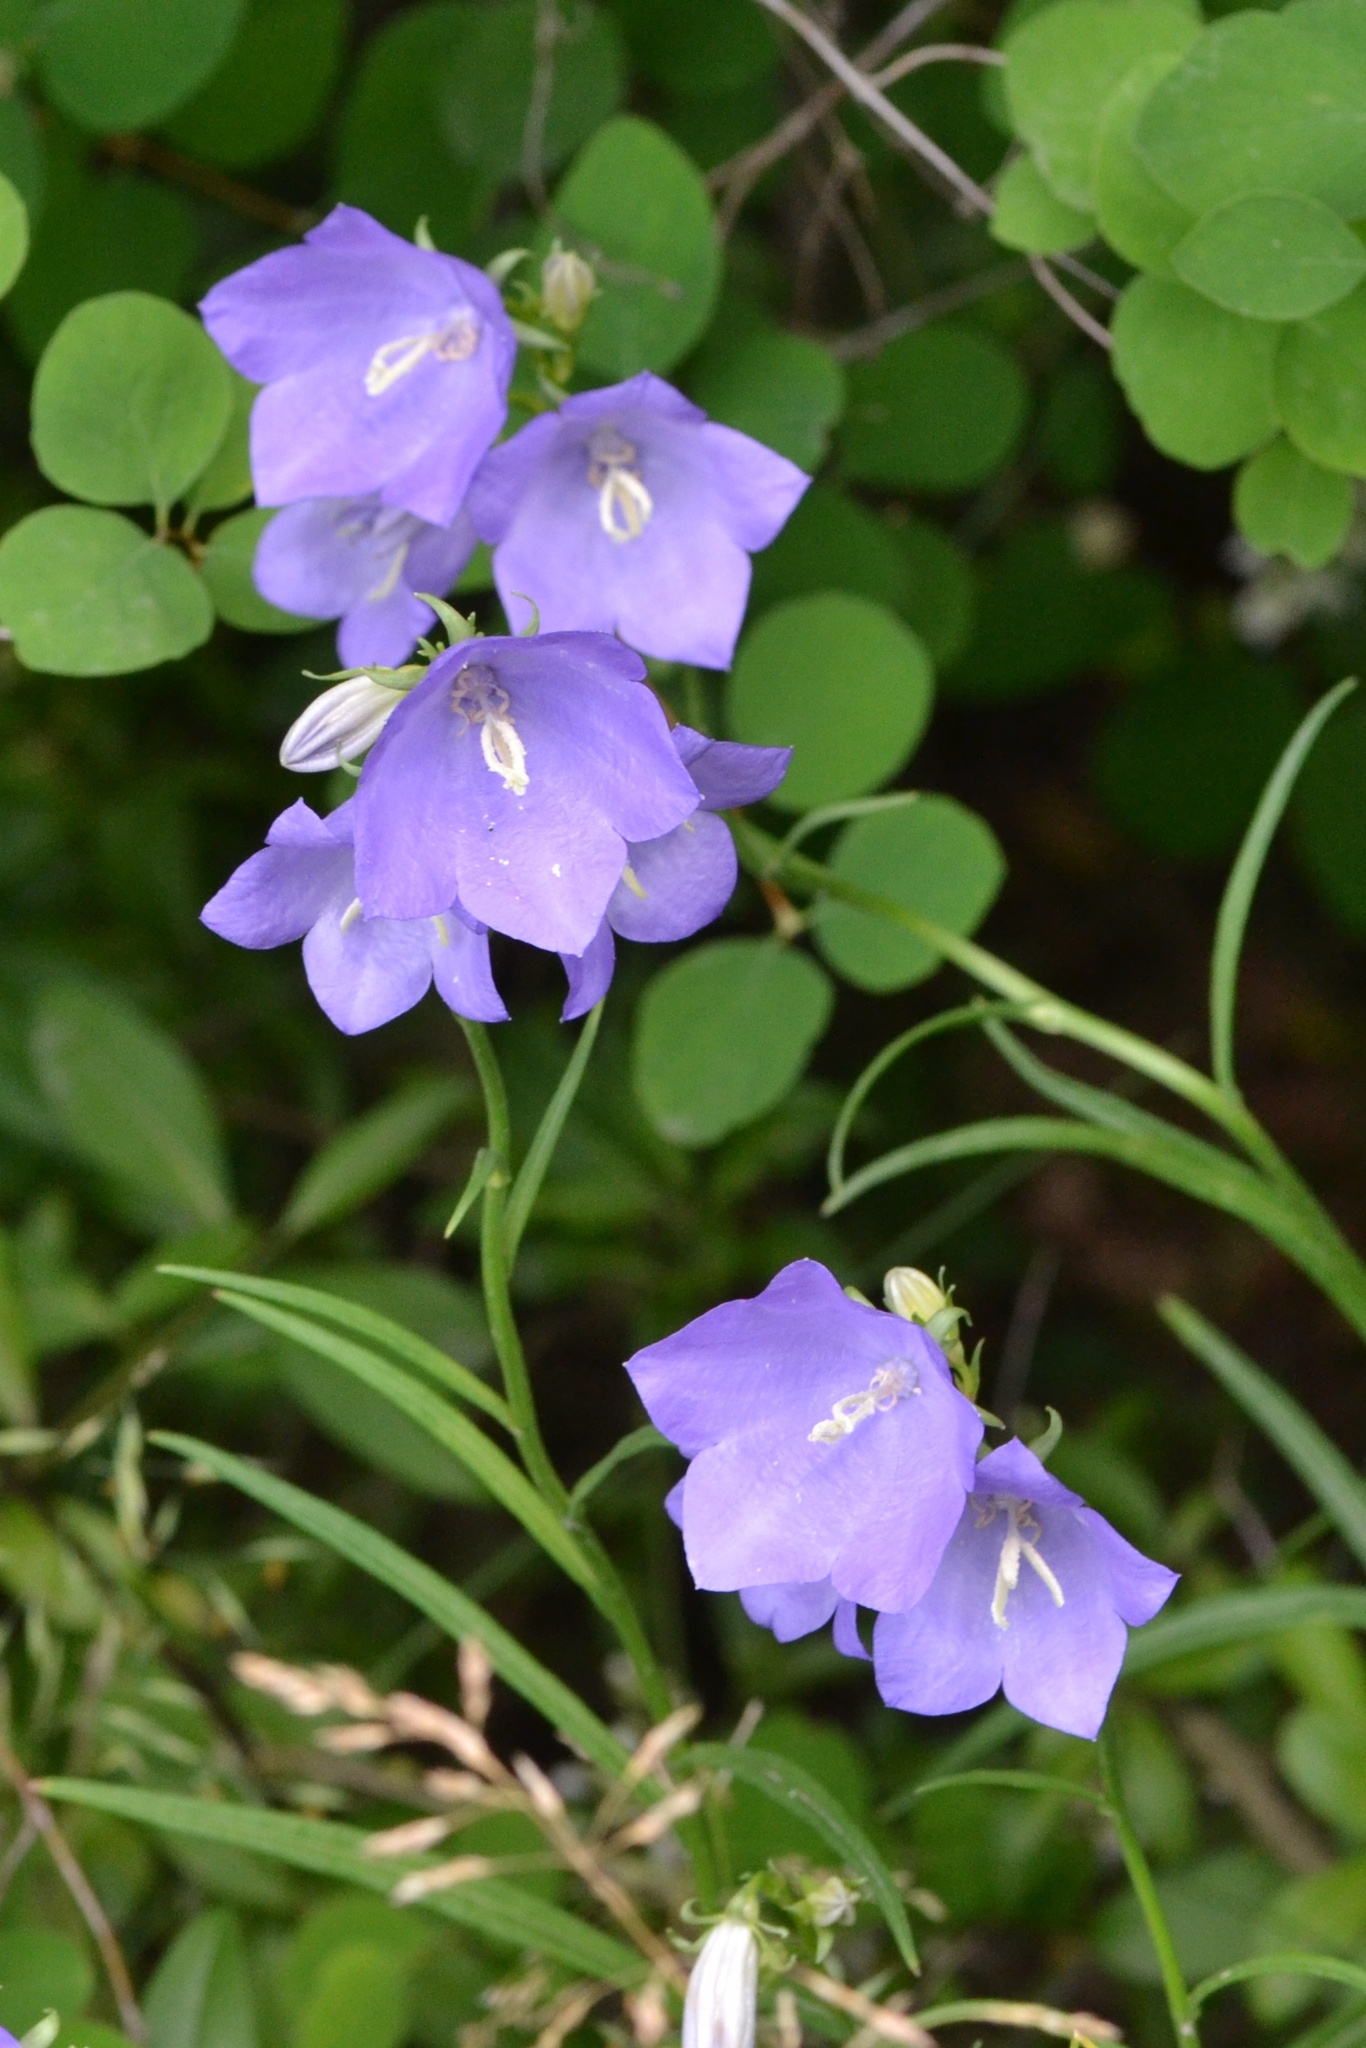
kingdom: Plantae
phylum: Tracheophyta
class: Magnoliopsida
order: Asterales
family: Campanulaceae
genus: Campanula
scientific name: Campanula persicifolia
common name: Peach-leaved bellflower
